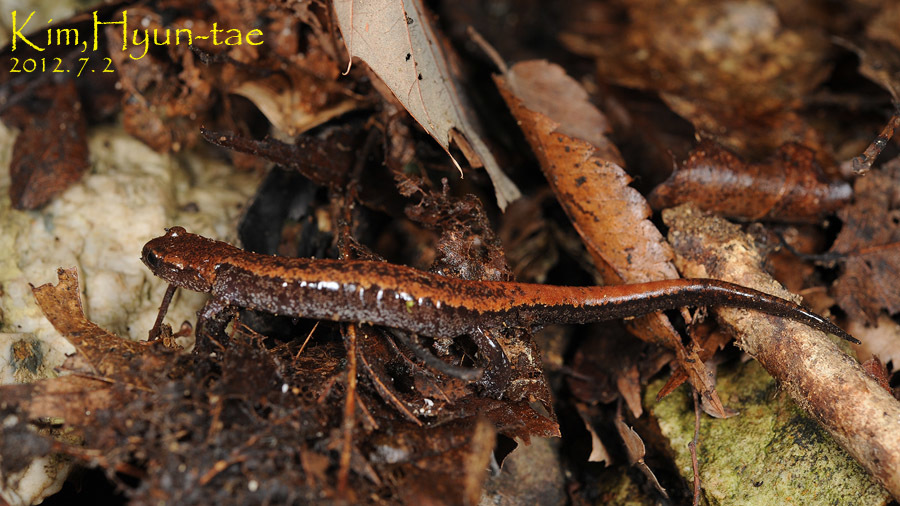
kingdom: Animalia
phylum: Chordata
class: Amphibia
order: Caudata
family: Plethodontidae
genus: Karsenia
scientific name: Karsenia koreana
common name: Korean crevice salamander
